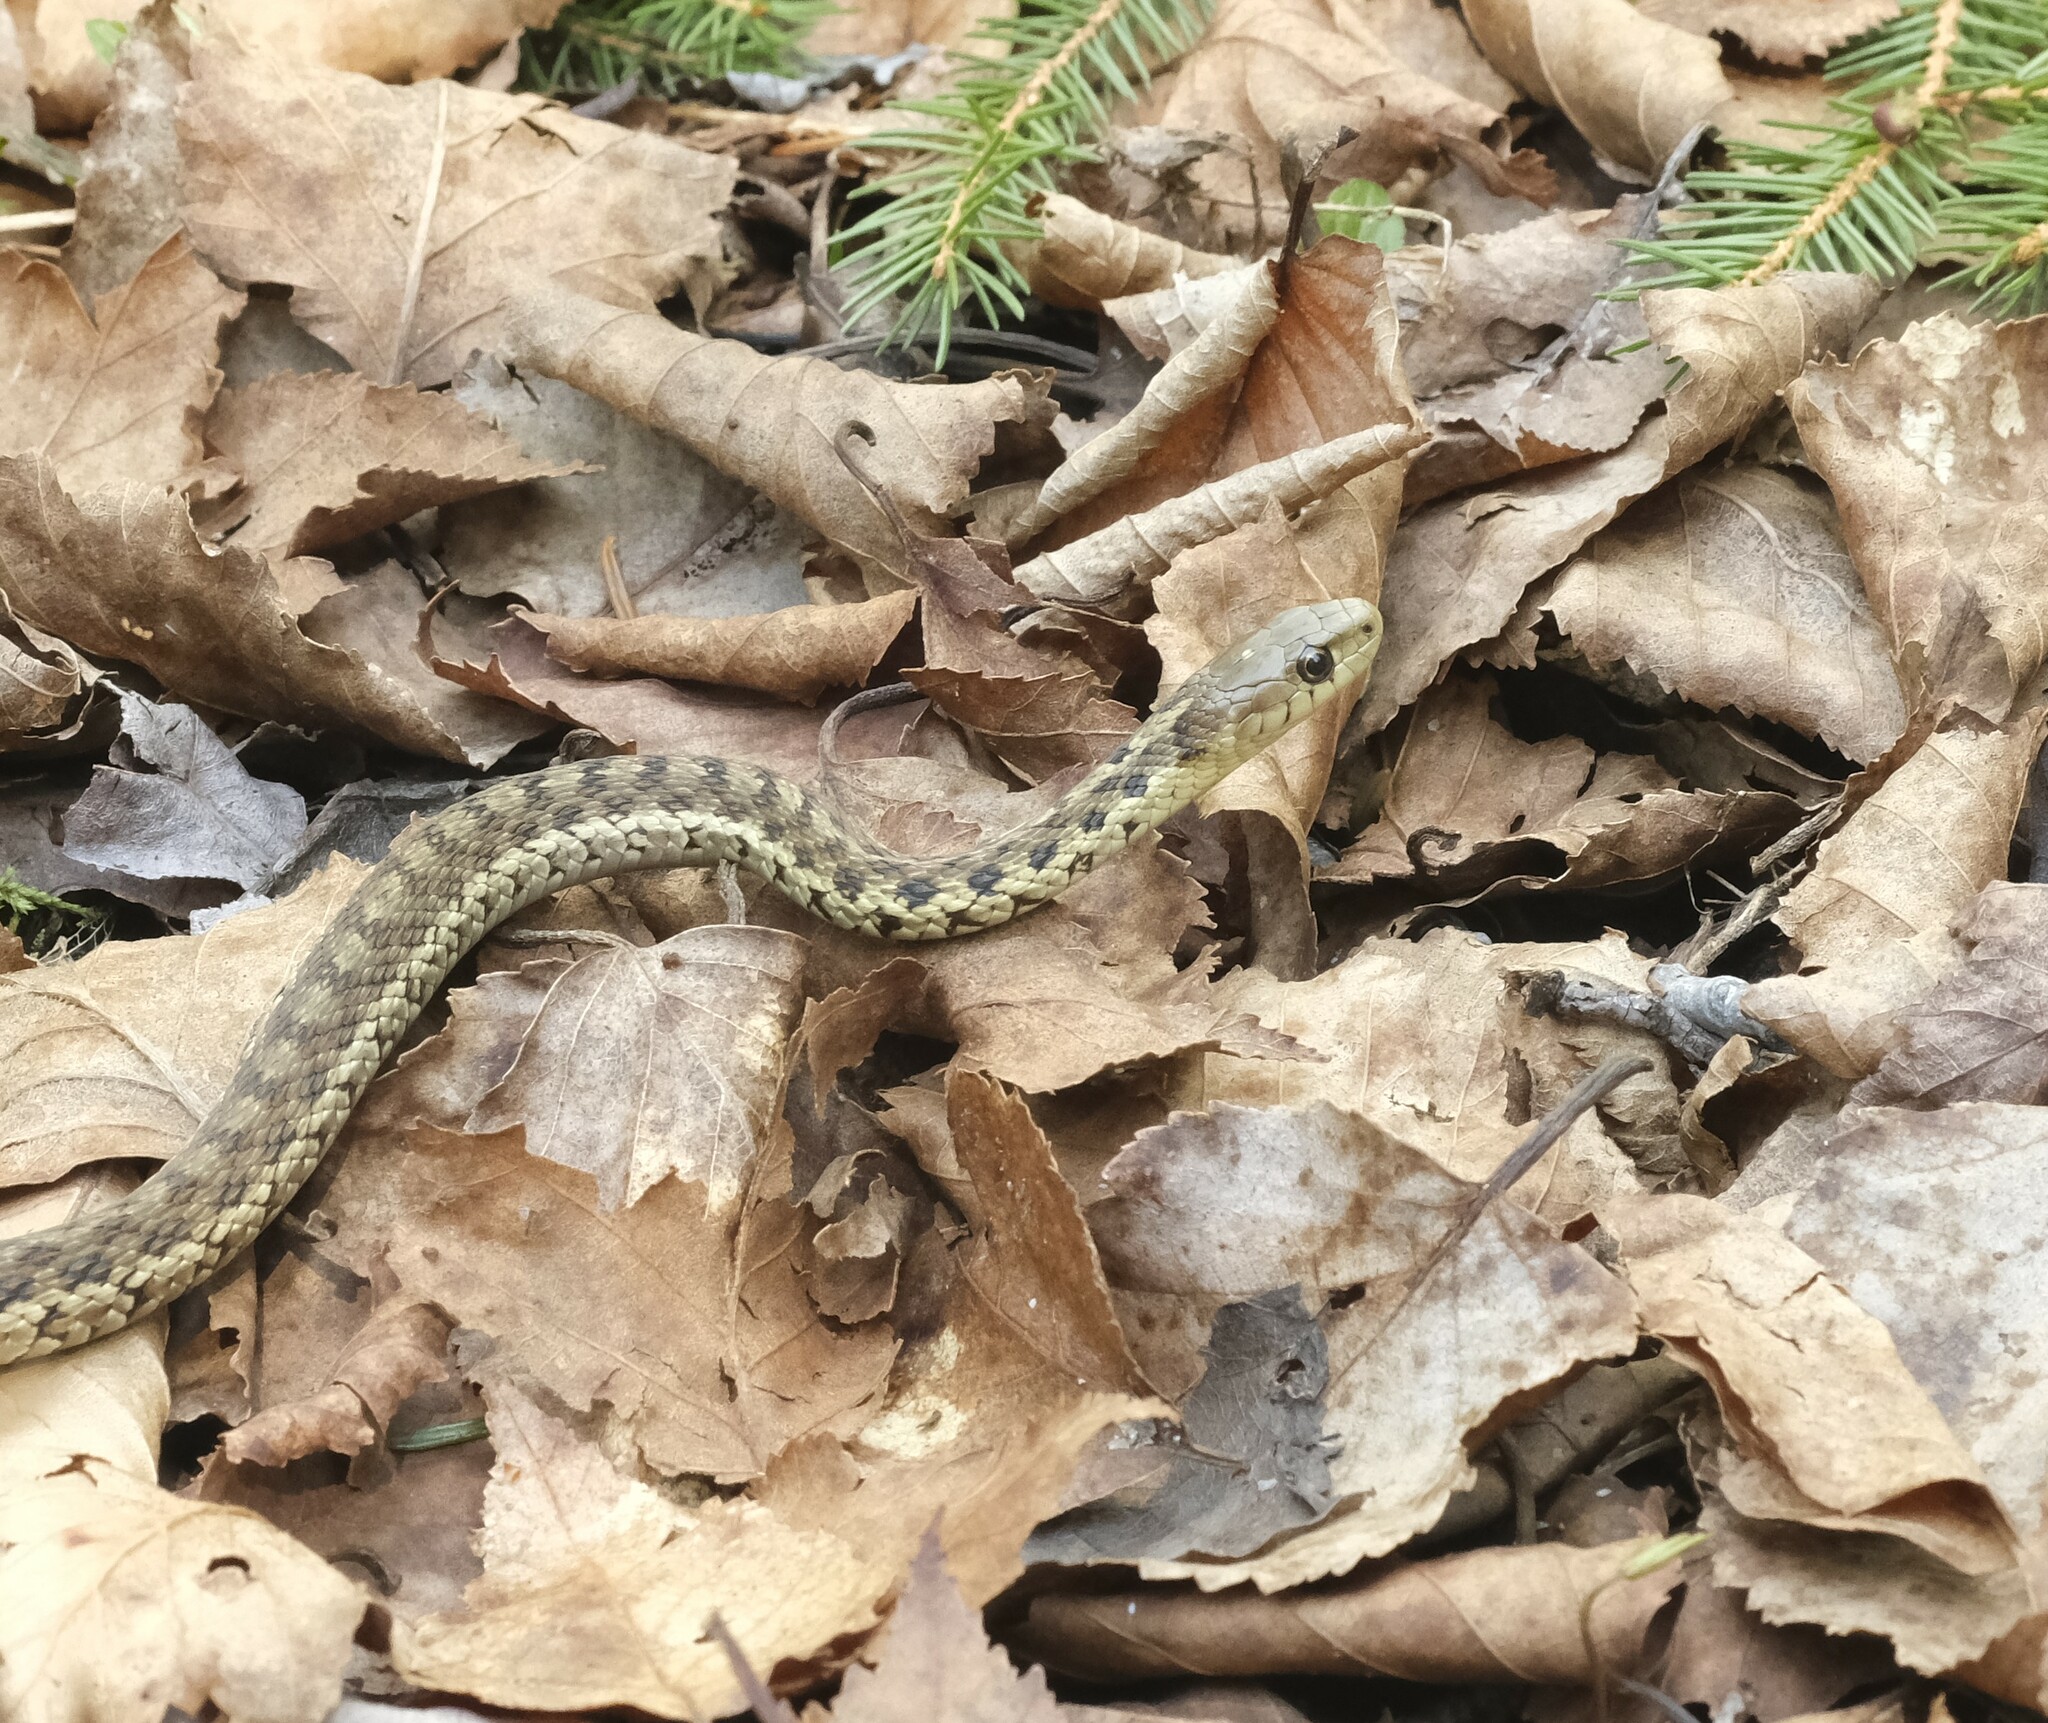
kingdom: Animalia
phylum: Chordata
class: Squamata
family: Colubridae
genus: Thamnophis
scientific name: Thamnophis sirtalis
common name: Common garter snake
